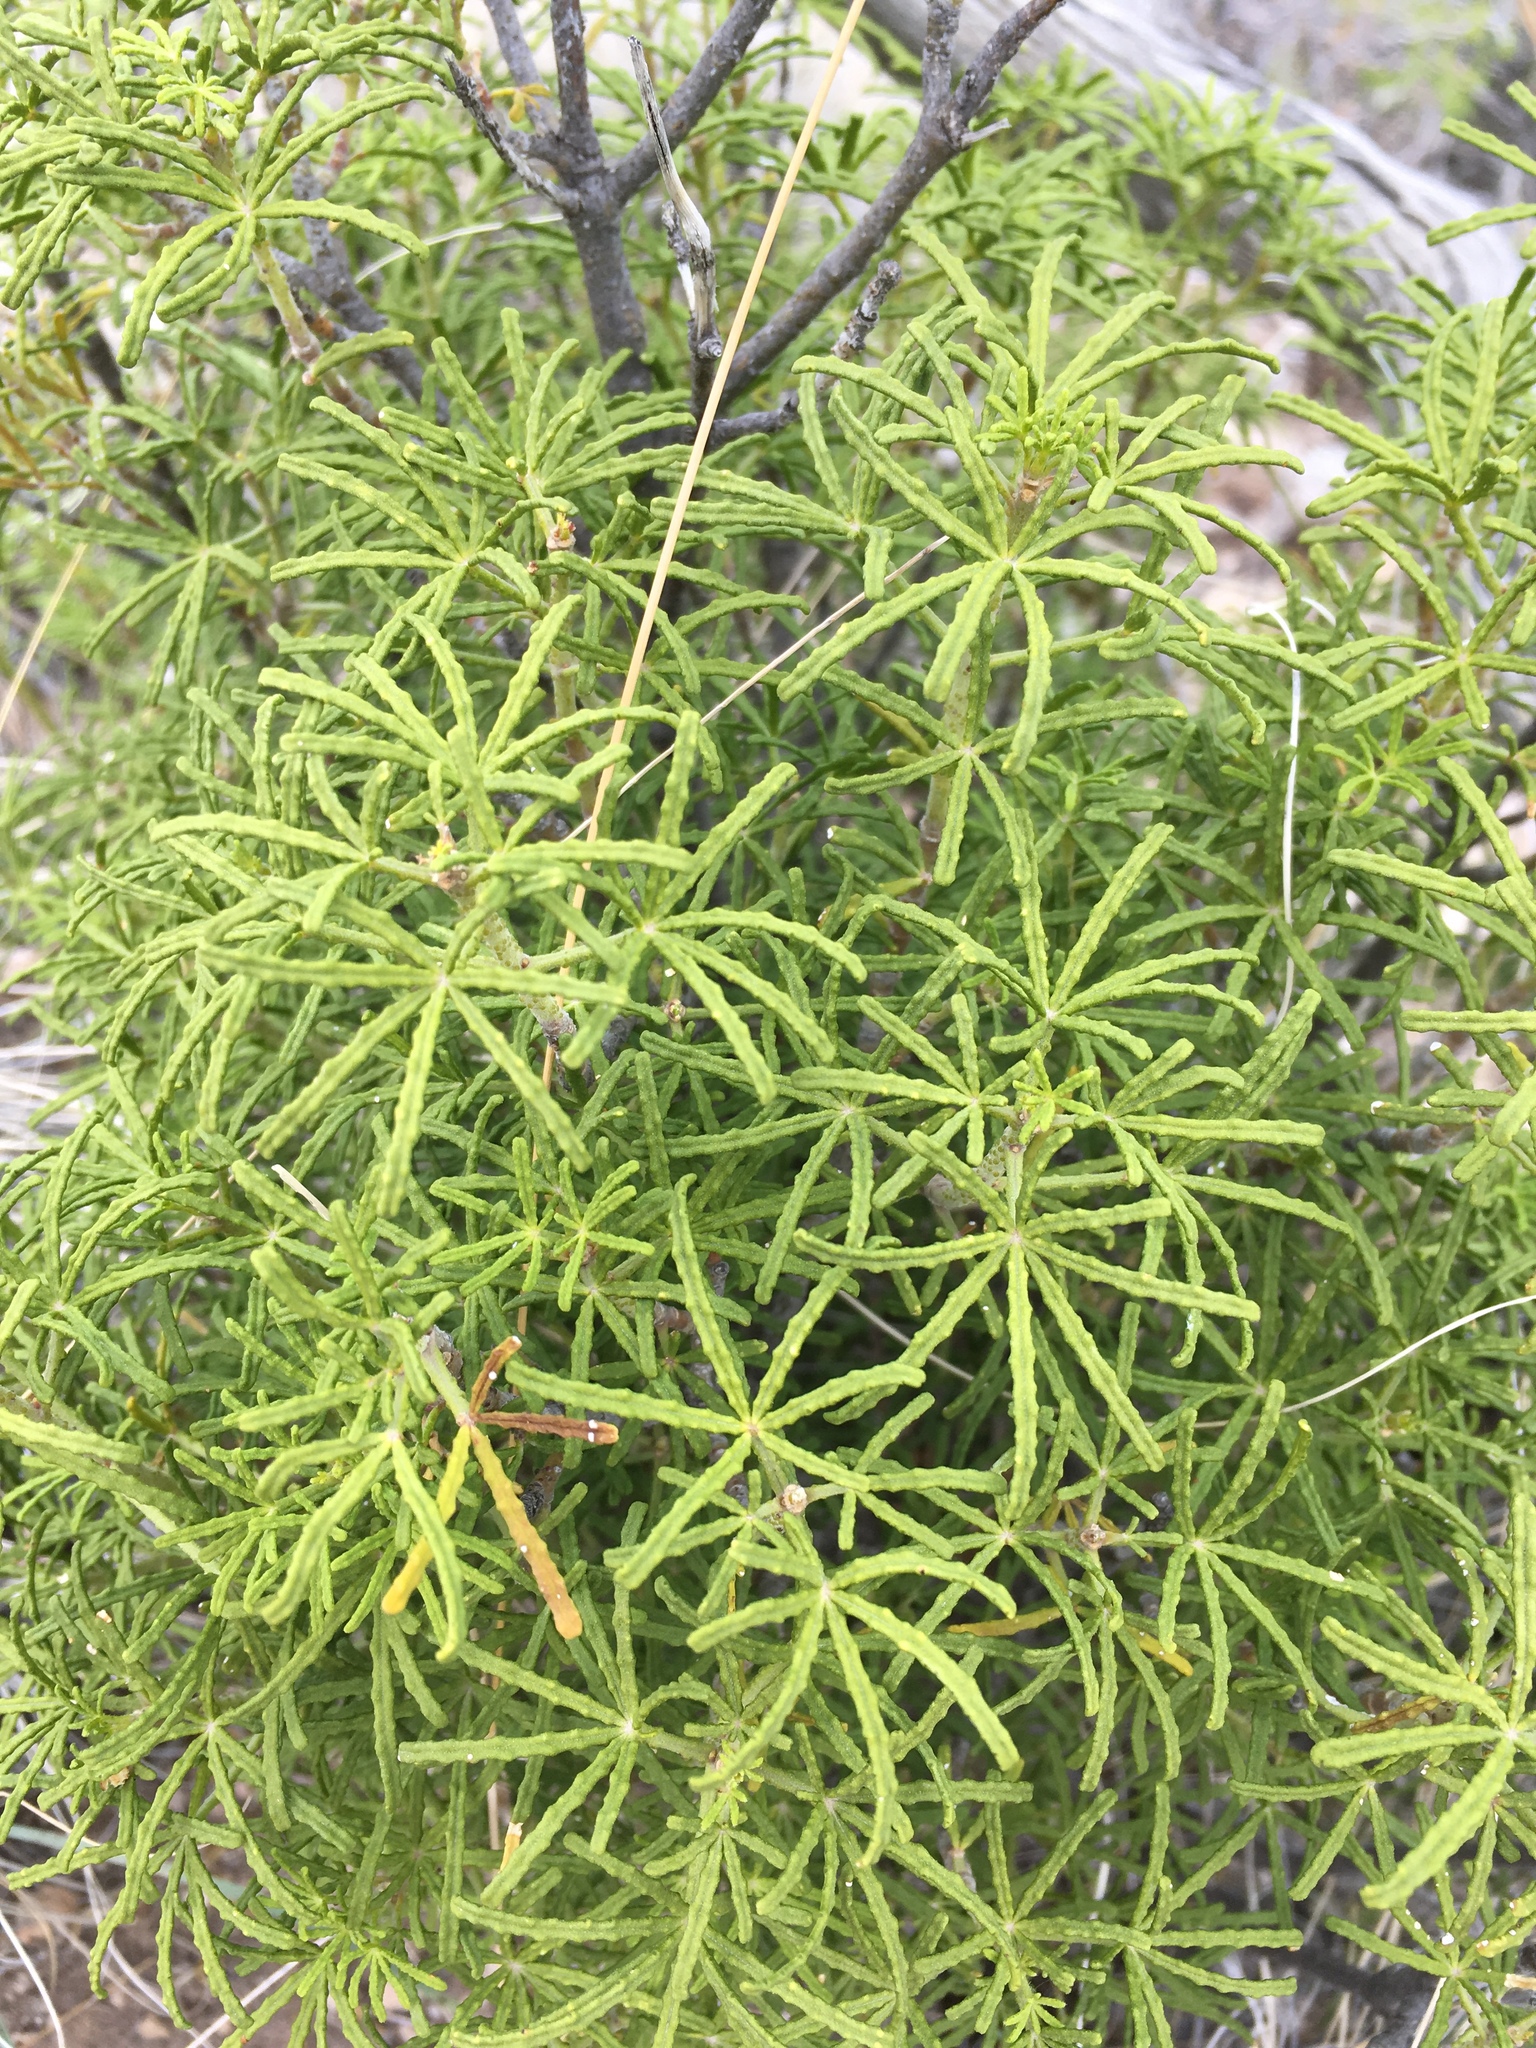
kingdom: Plantae
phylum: Tracheophyta
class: Magnoliopsida
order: Sapindales
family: Rutaceae
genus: Choisya
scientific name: Choisya dumosa
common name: Mexican-orange
